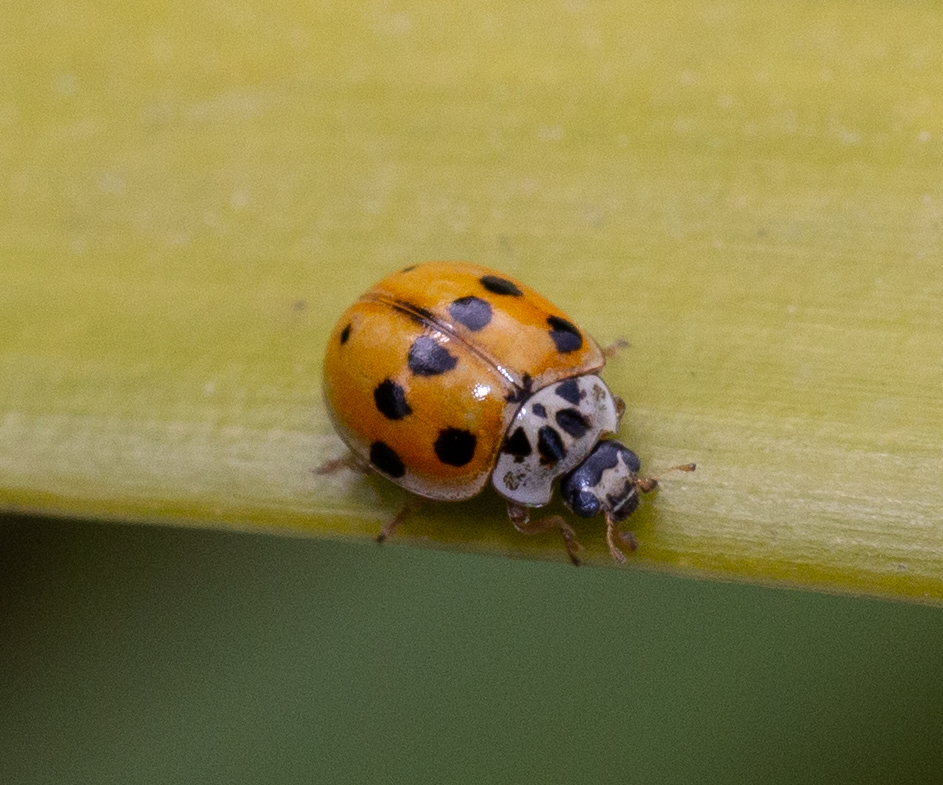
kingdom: Animalia
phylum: Arthropoda
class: Insecta
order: Coleoptera
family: Coccinellidae
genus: Adalia
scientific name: Adalia decempunctata
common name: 10-spot ladybird
